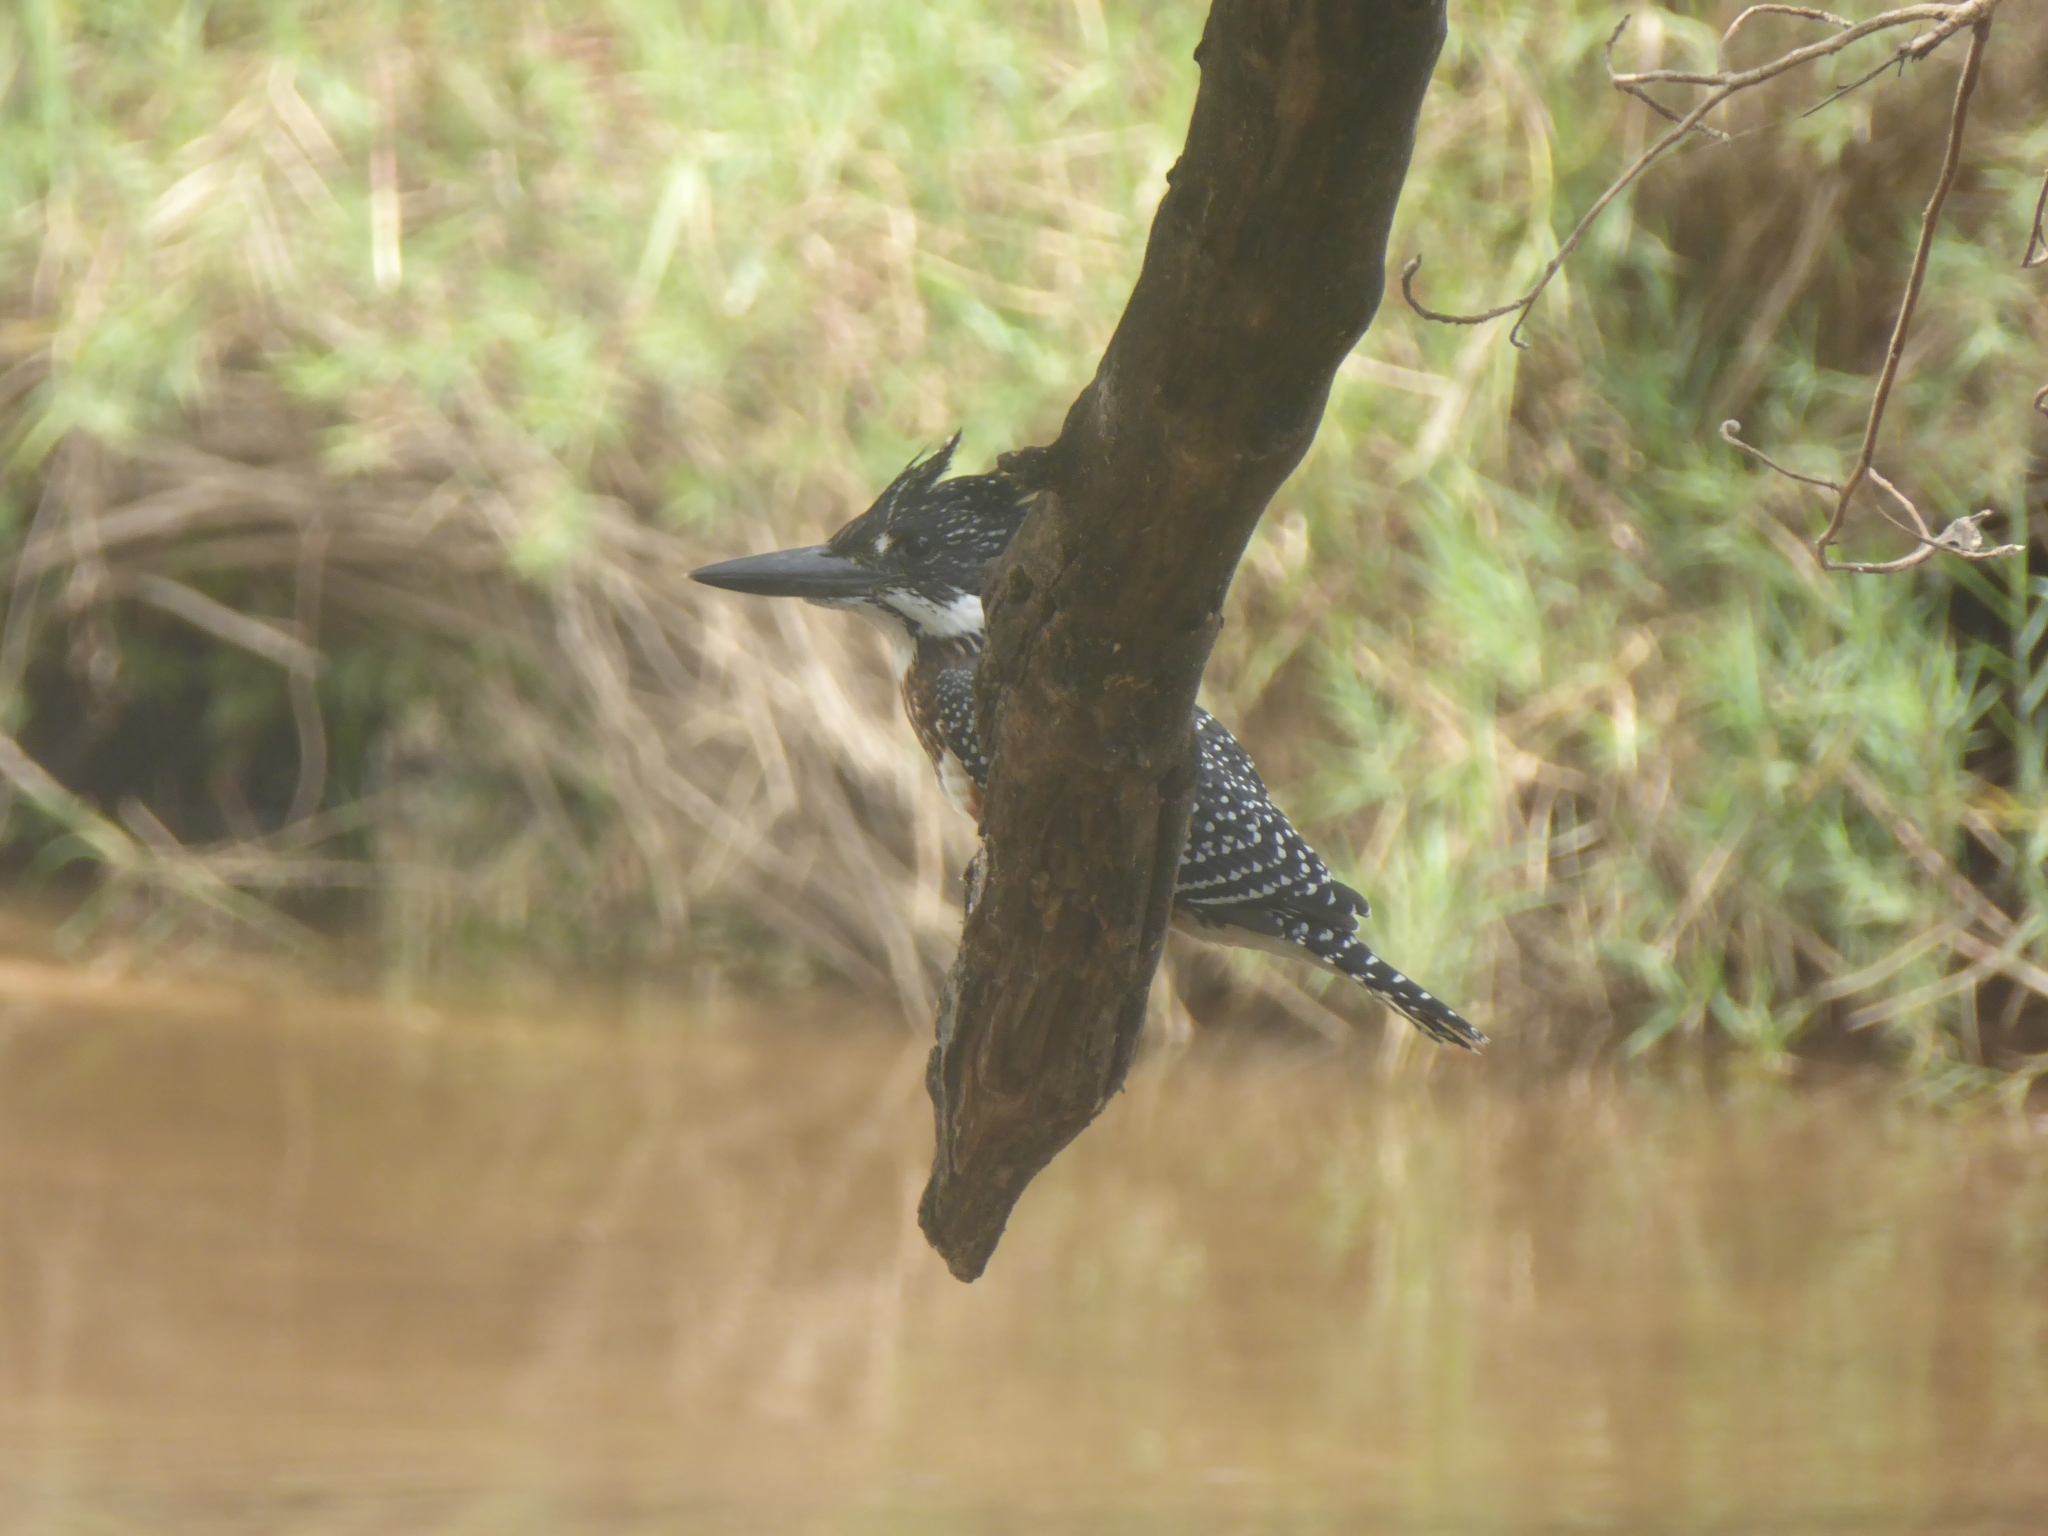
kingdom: Animalia
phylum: Chordata
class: Aves
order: Coraciiformes
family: Alcedinidae
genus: Megaceryle
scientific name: Megaceryle maxima
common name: Giant kingfisher
